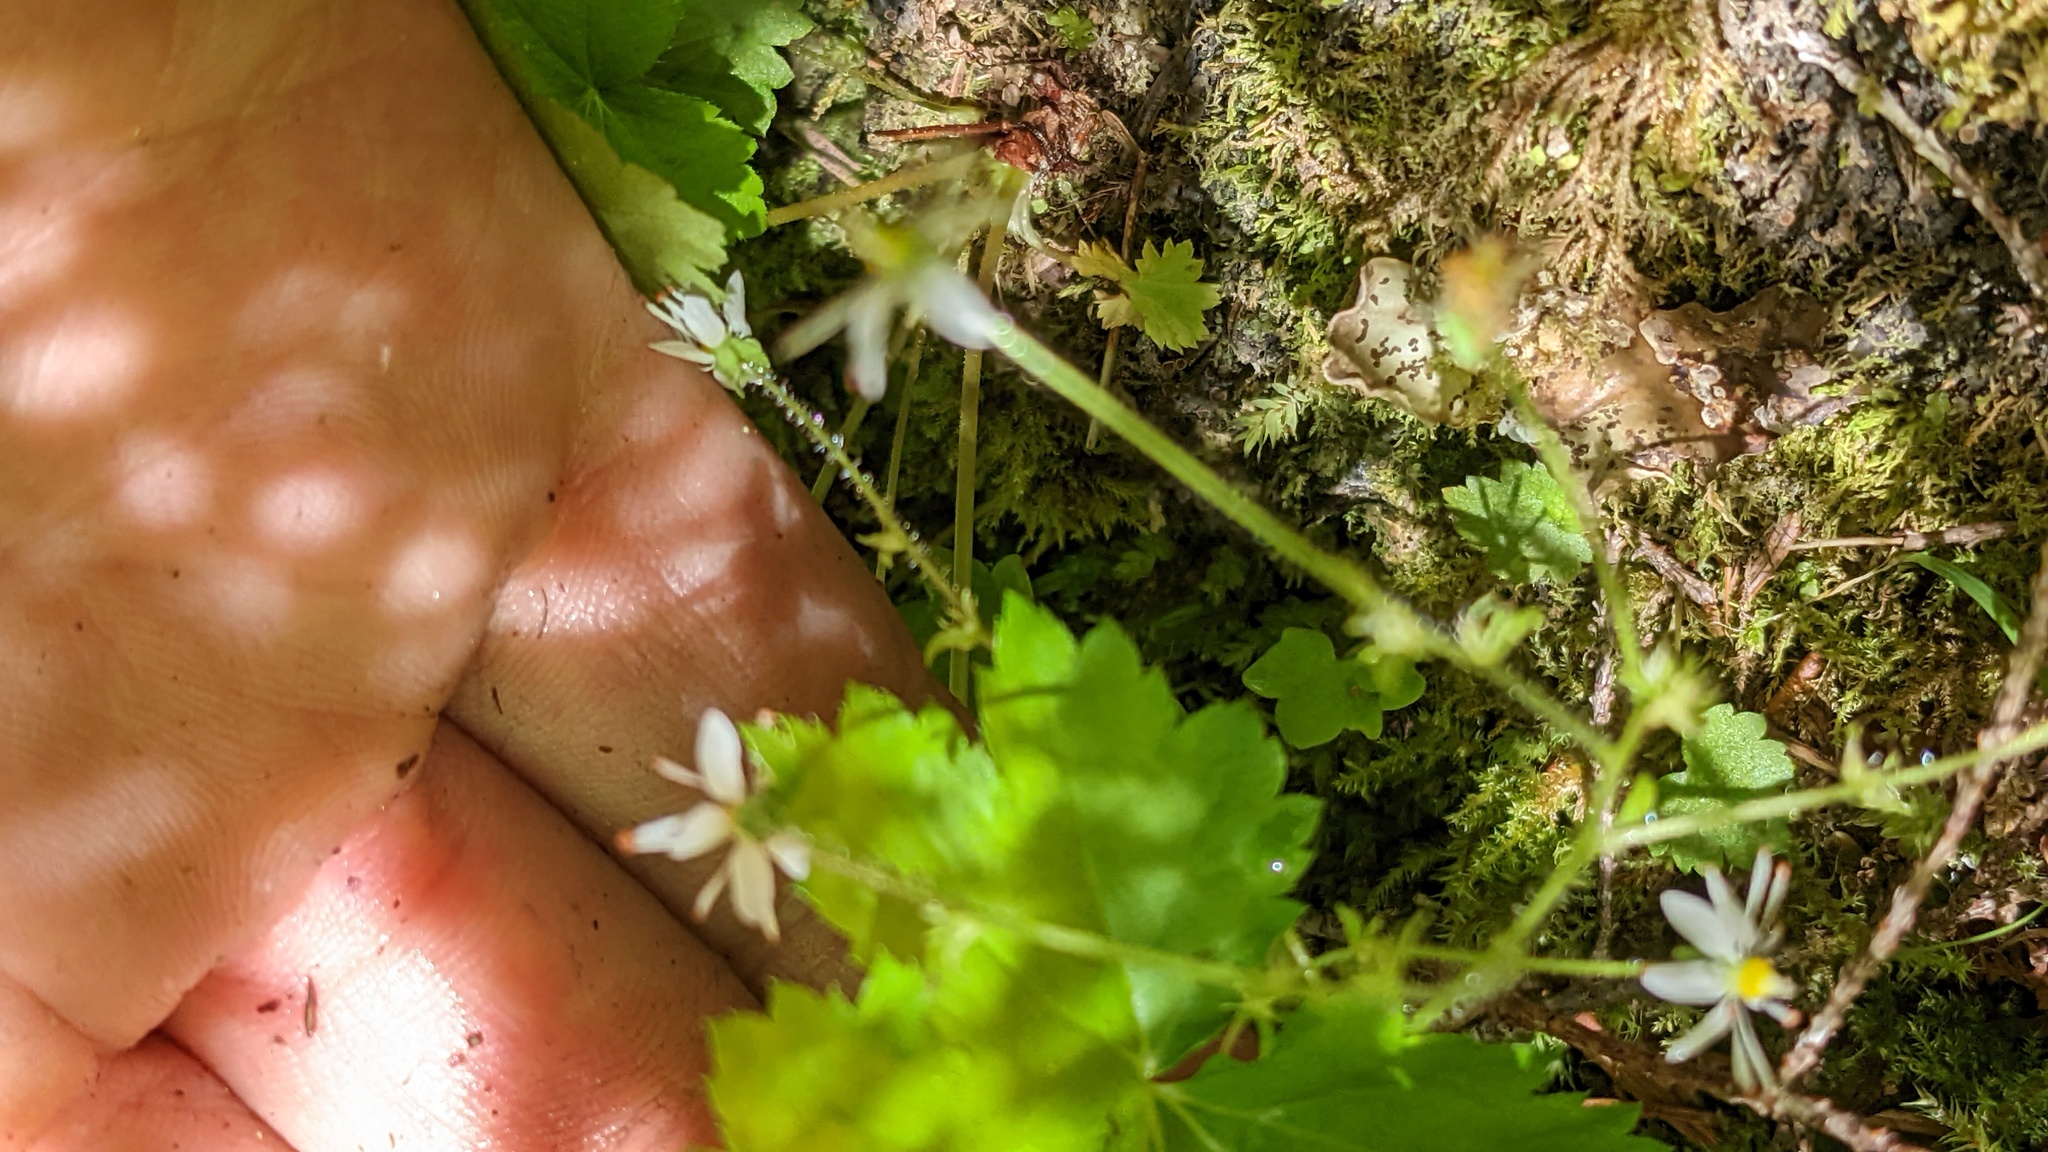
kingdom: Plantae
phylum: Tracheophyta
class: Magnoliopsida
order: Saxifragales
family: Saxifragaceae
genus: Micranthes
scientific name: Micranthes mertensiana
